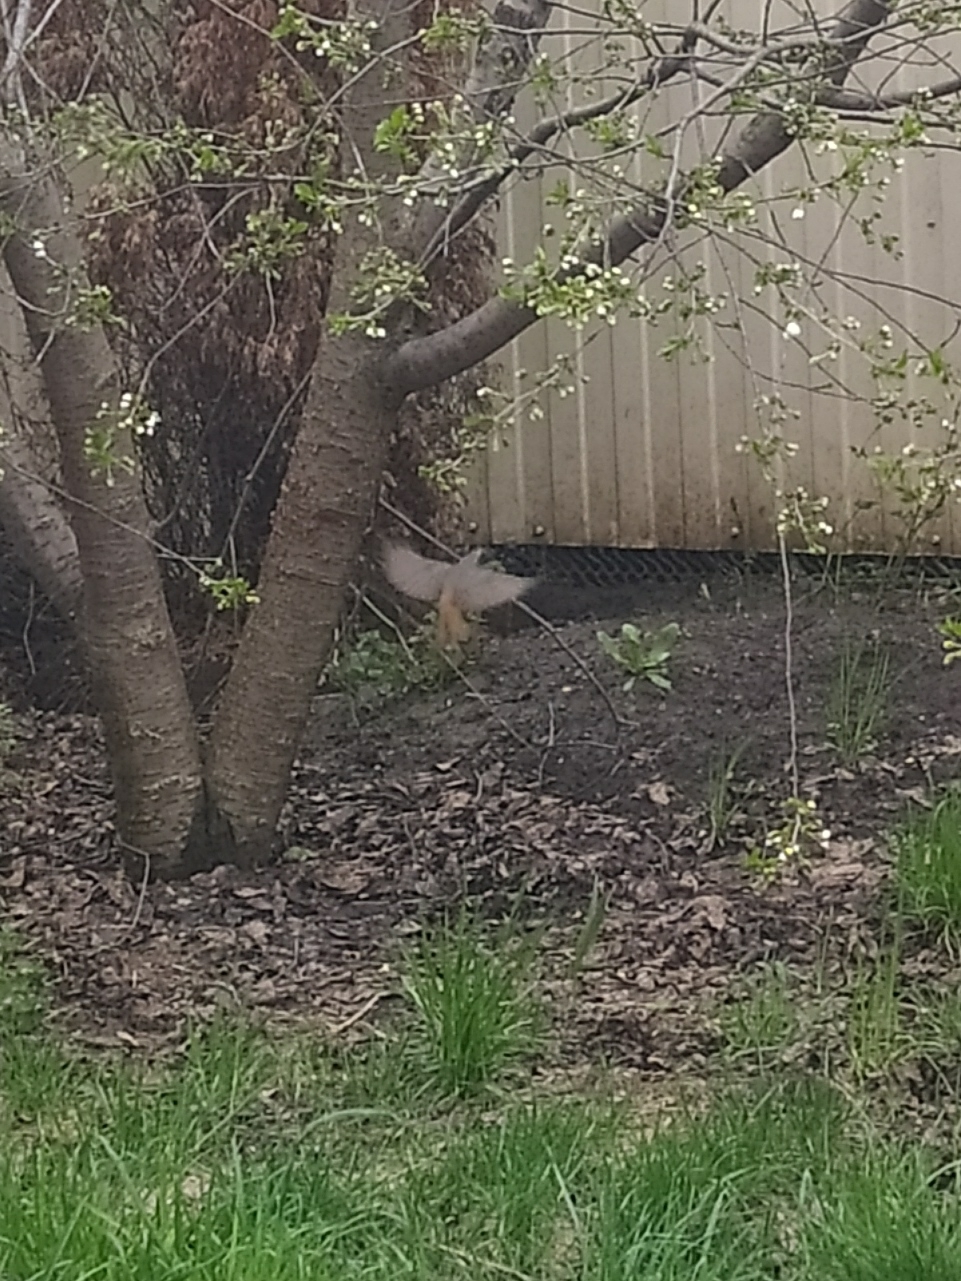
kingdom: Animalia
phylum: Chordata
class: Aves
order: Passeriformes
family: Muscicapidae
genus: Phoenicurus
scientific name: Phoenicurus phoenicurus
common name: Common redstart
